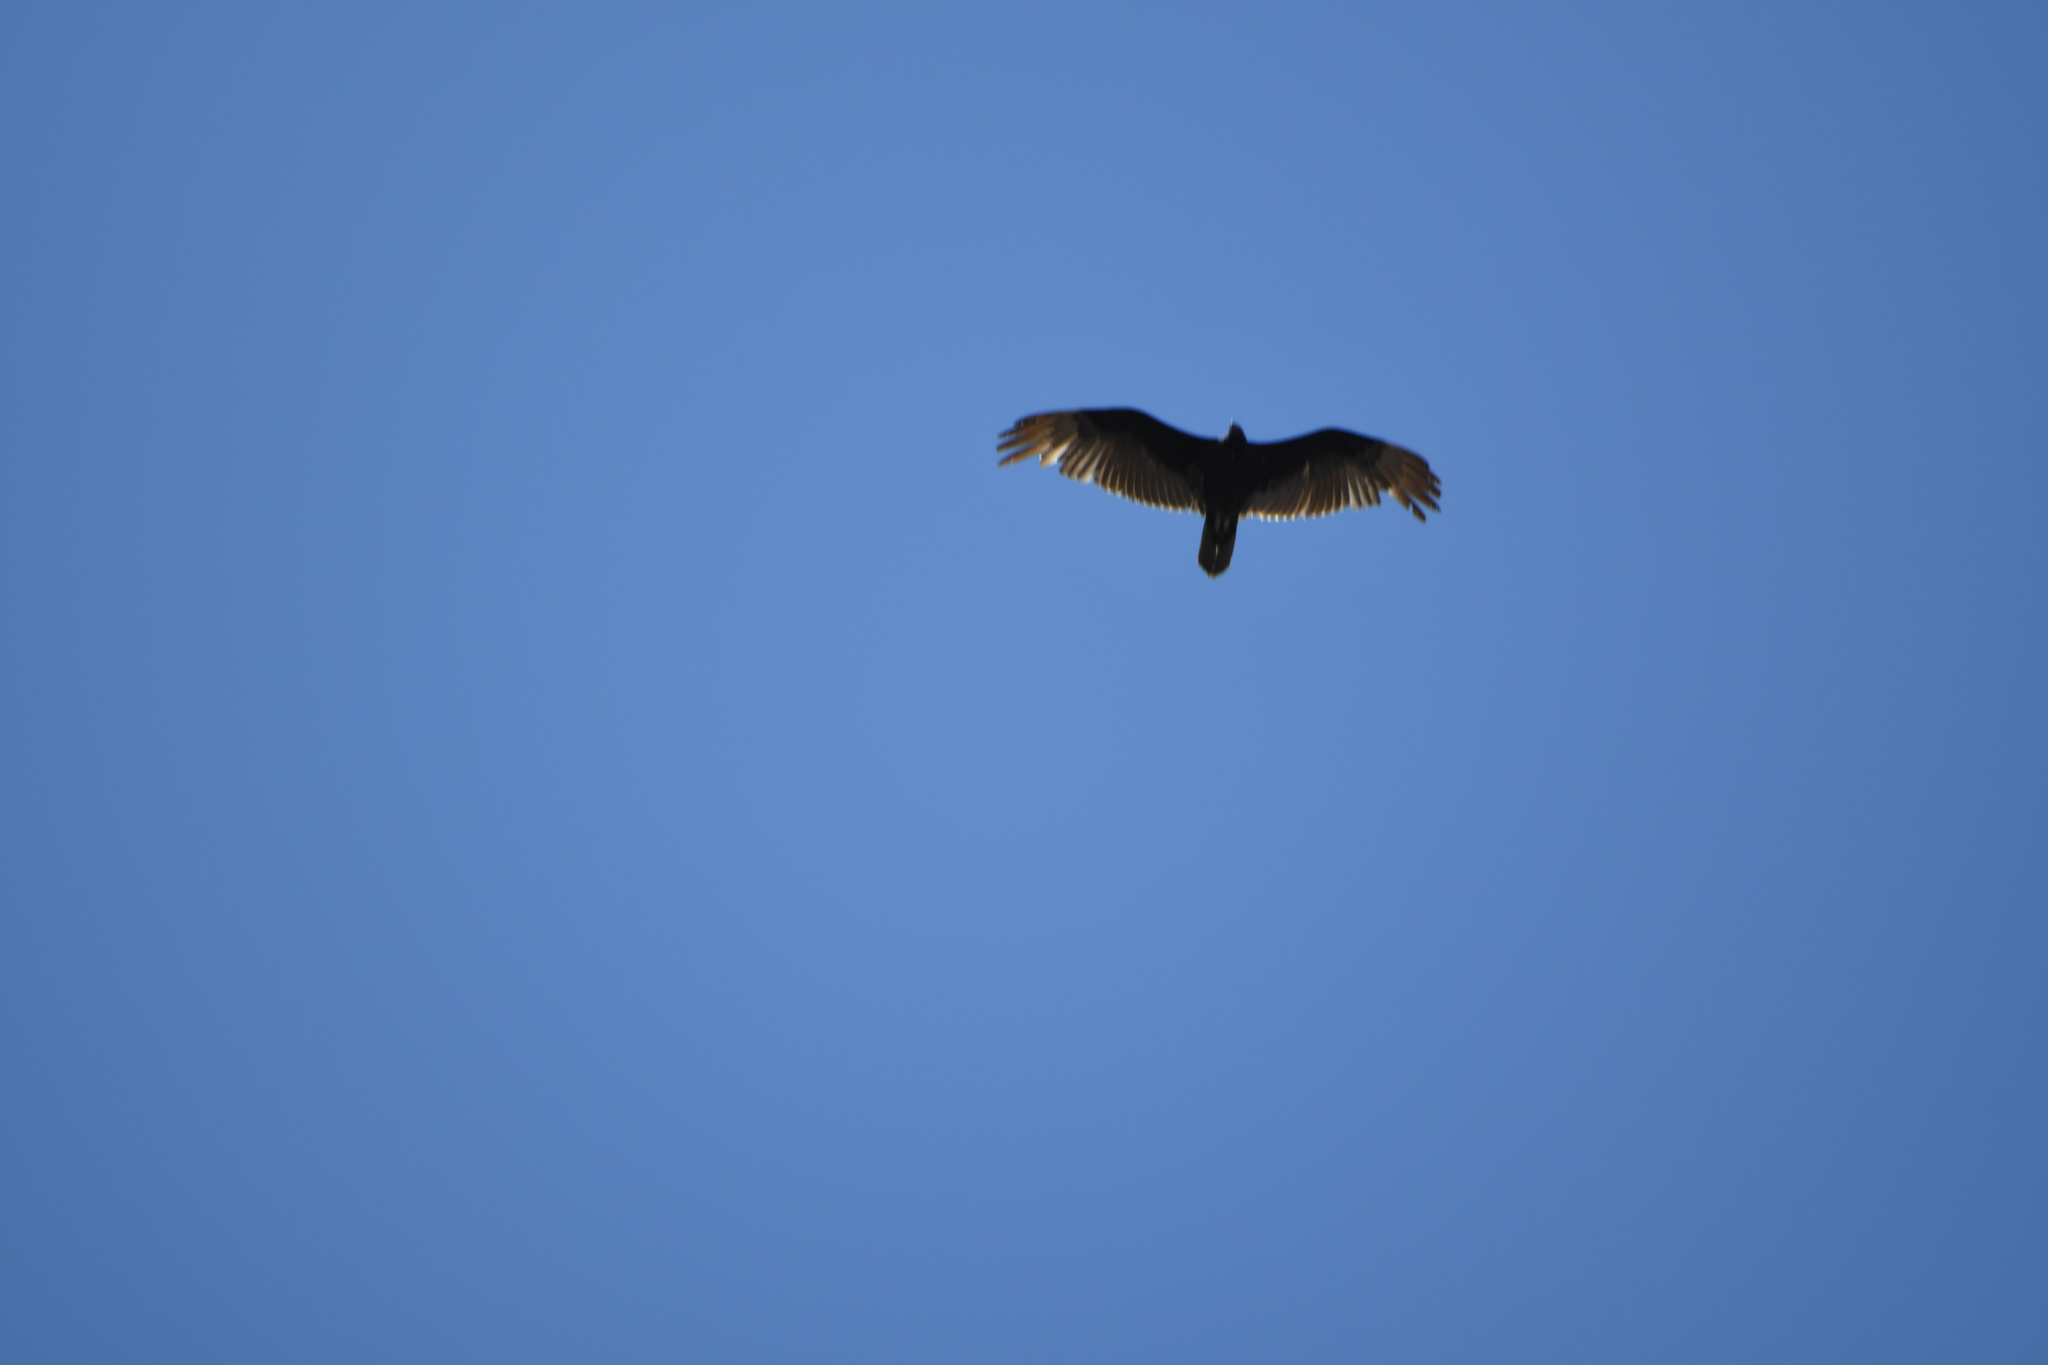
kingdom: Animalia
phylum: Chordata
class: Aves
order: Accipitriformes
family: Cathartidae
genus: Cathartes
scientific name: Cathartes aura
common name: Turkey vulture
